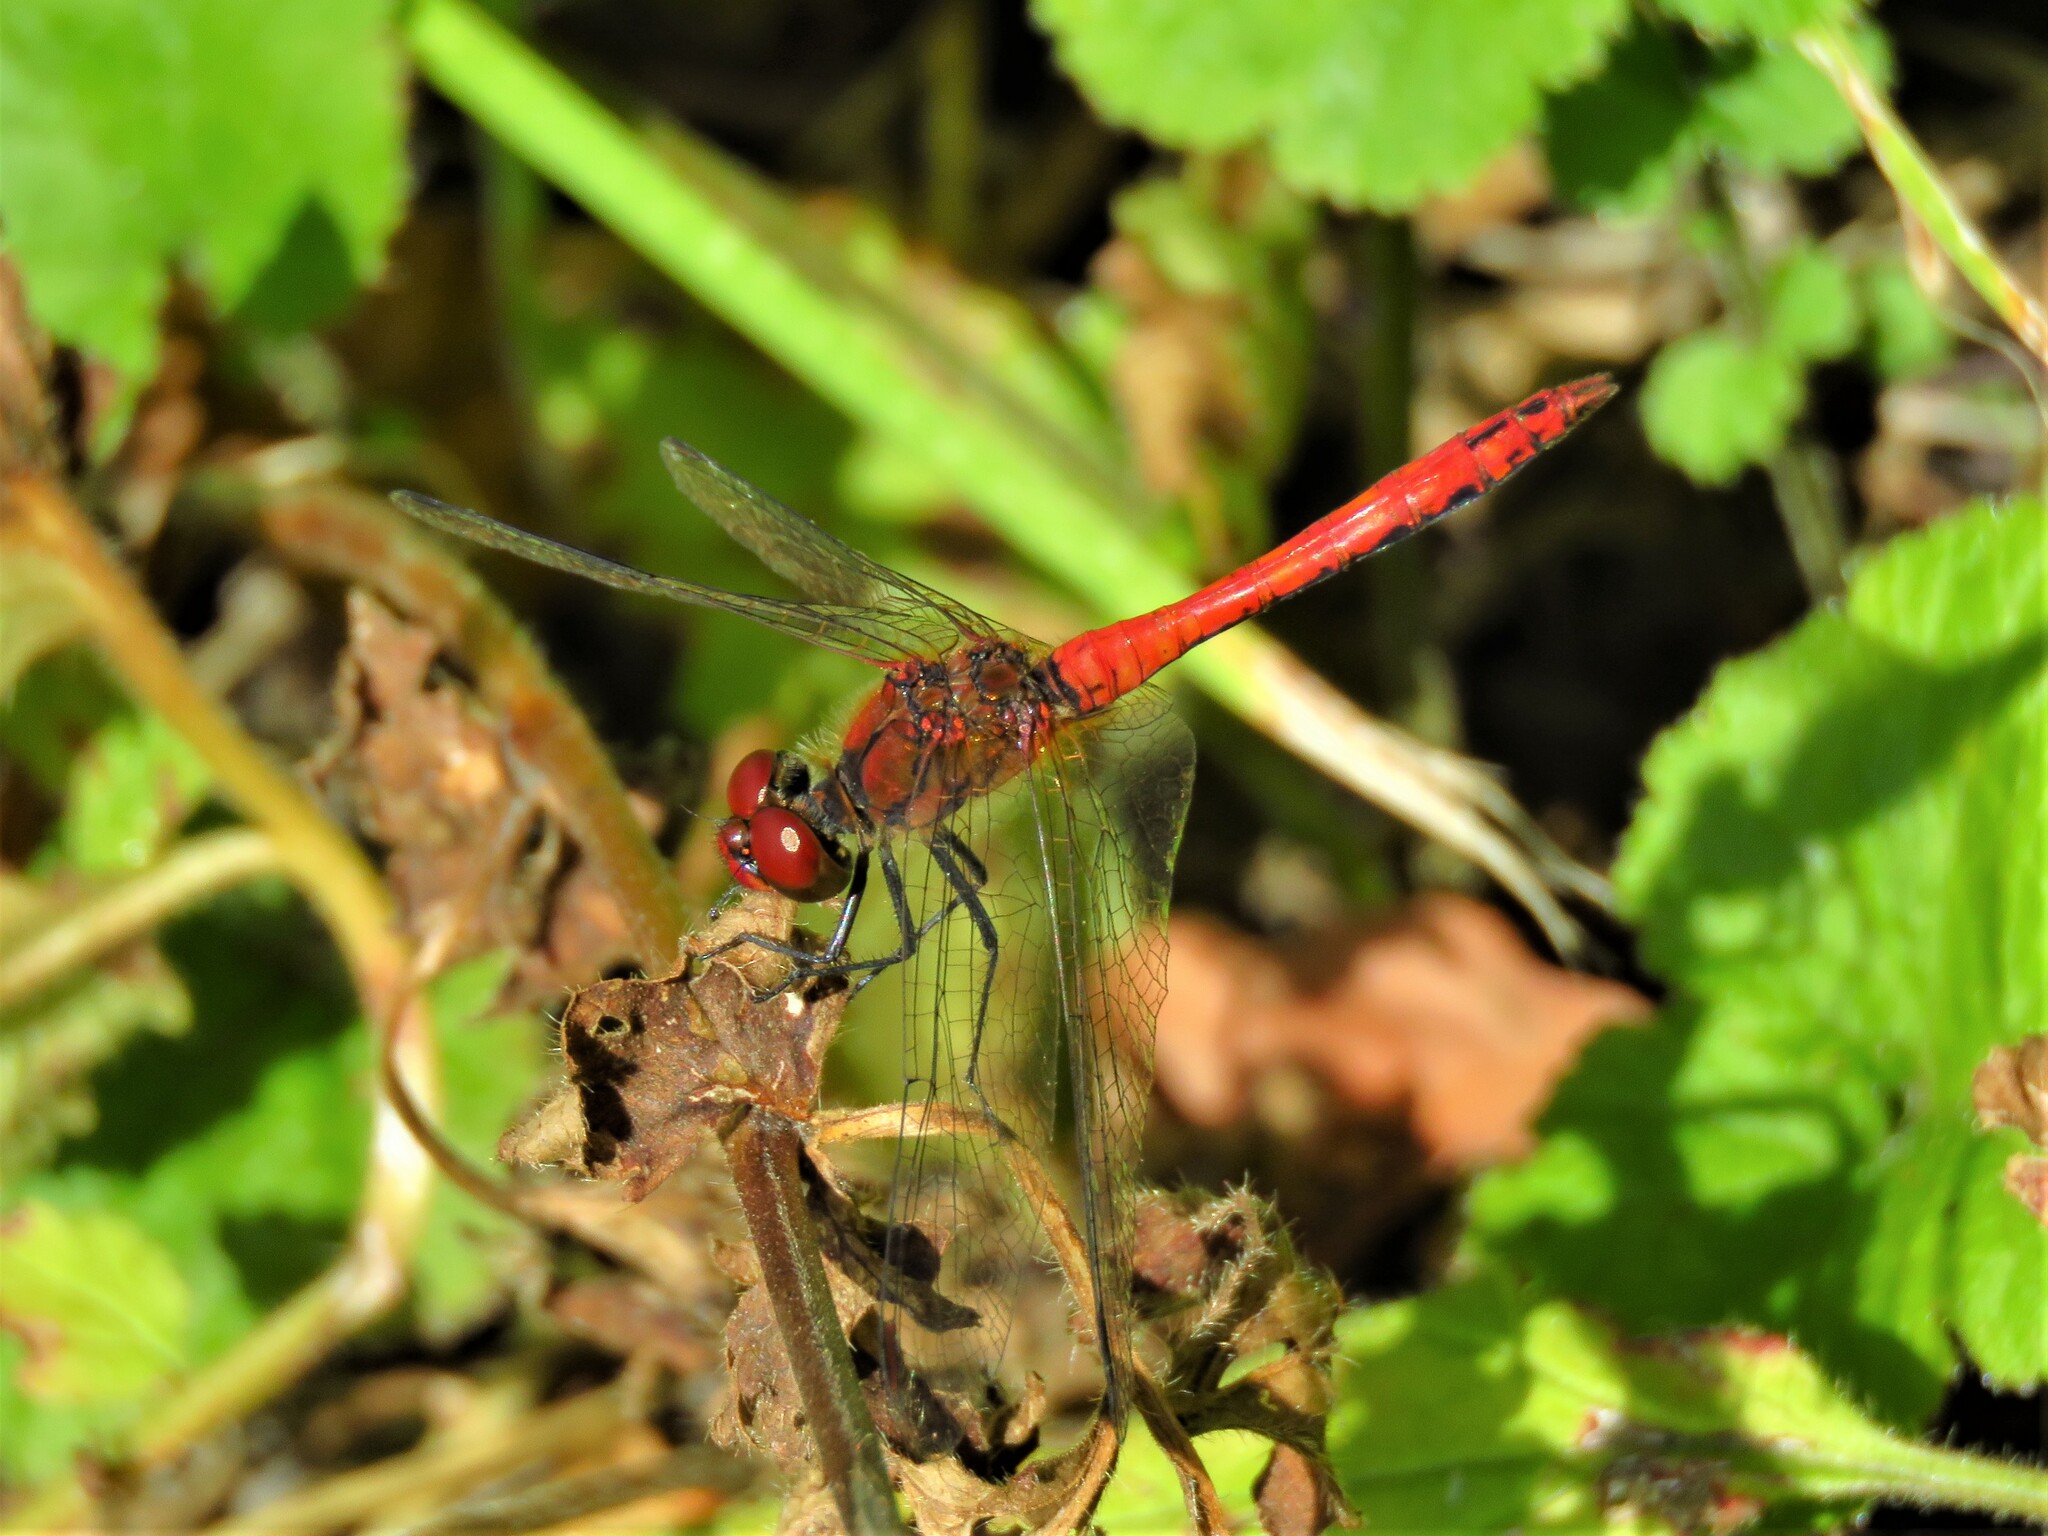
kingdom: Animalia
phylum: Arthropoda
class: Insecta
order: Odonata
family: Libellulidae
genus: Sympetrum
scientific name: Sympetrum sanguineum
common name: Ruddy darter
